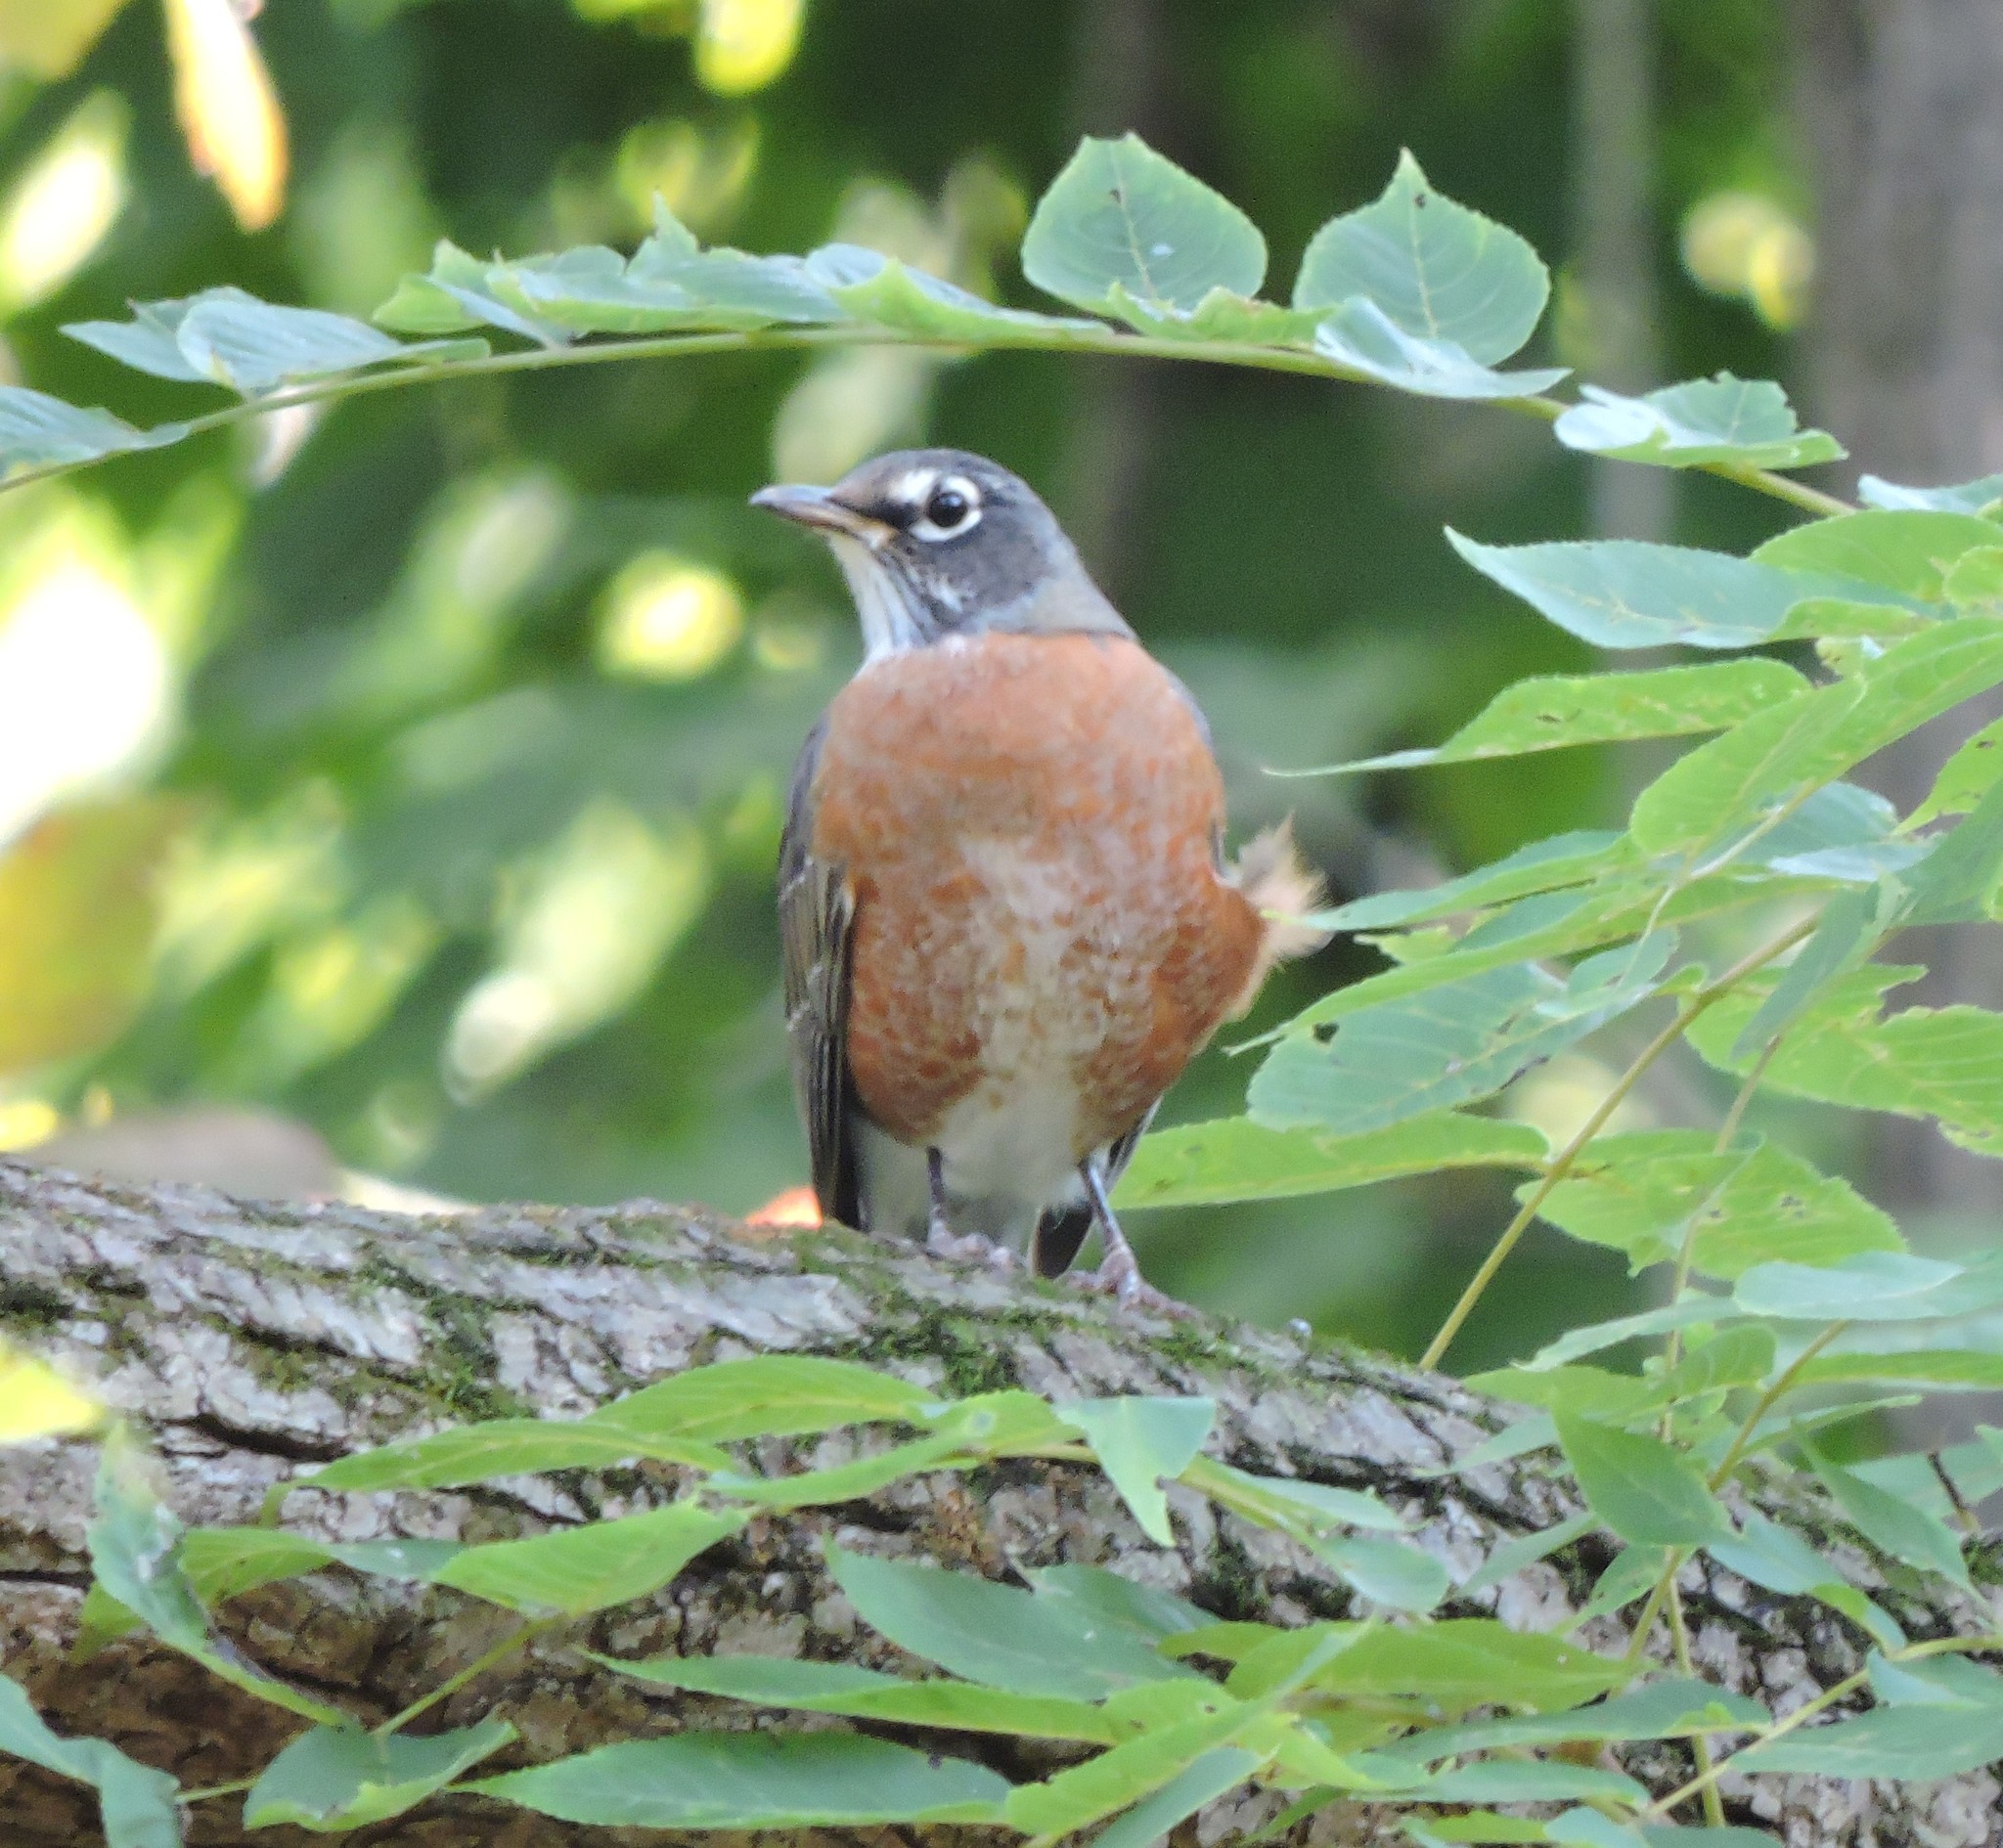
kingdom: Animalia
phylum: Chordata
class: Aves
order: Passeriformes
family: Turdidae
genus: Turdus
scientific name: Turdus migratorius
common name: American robin
